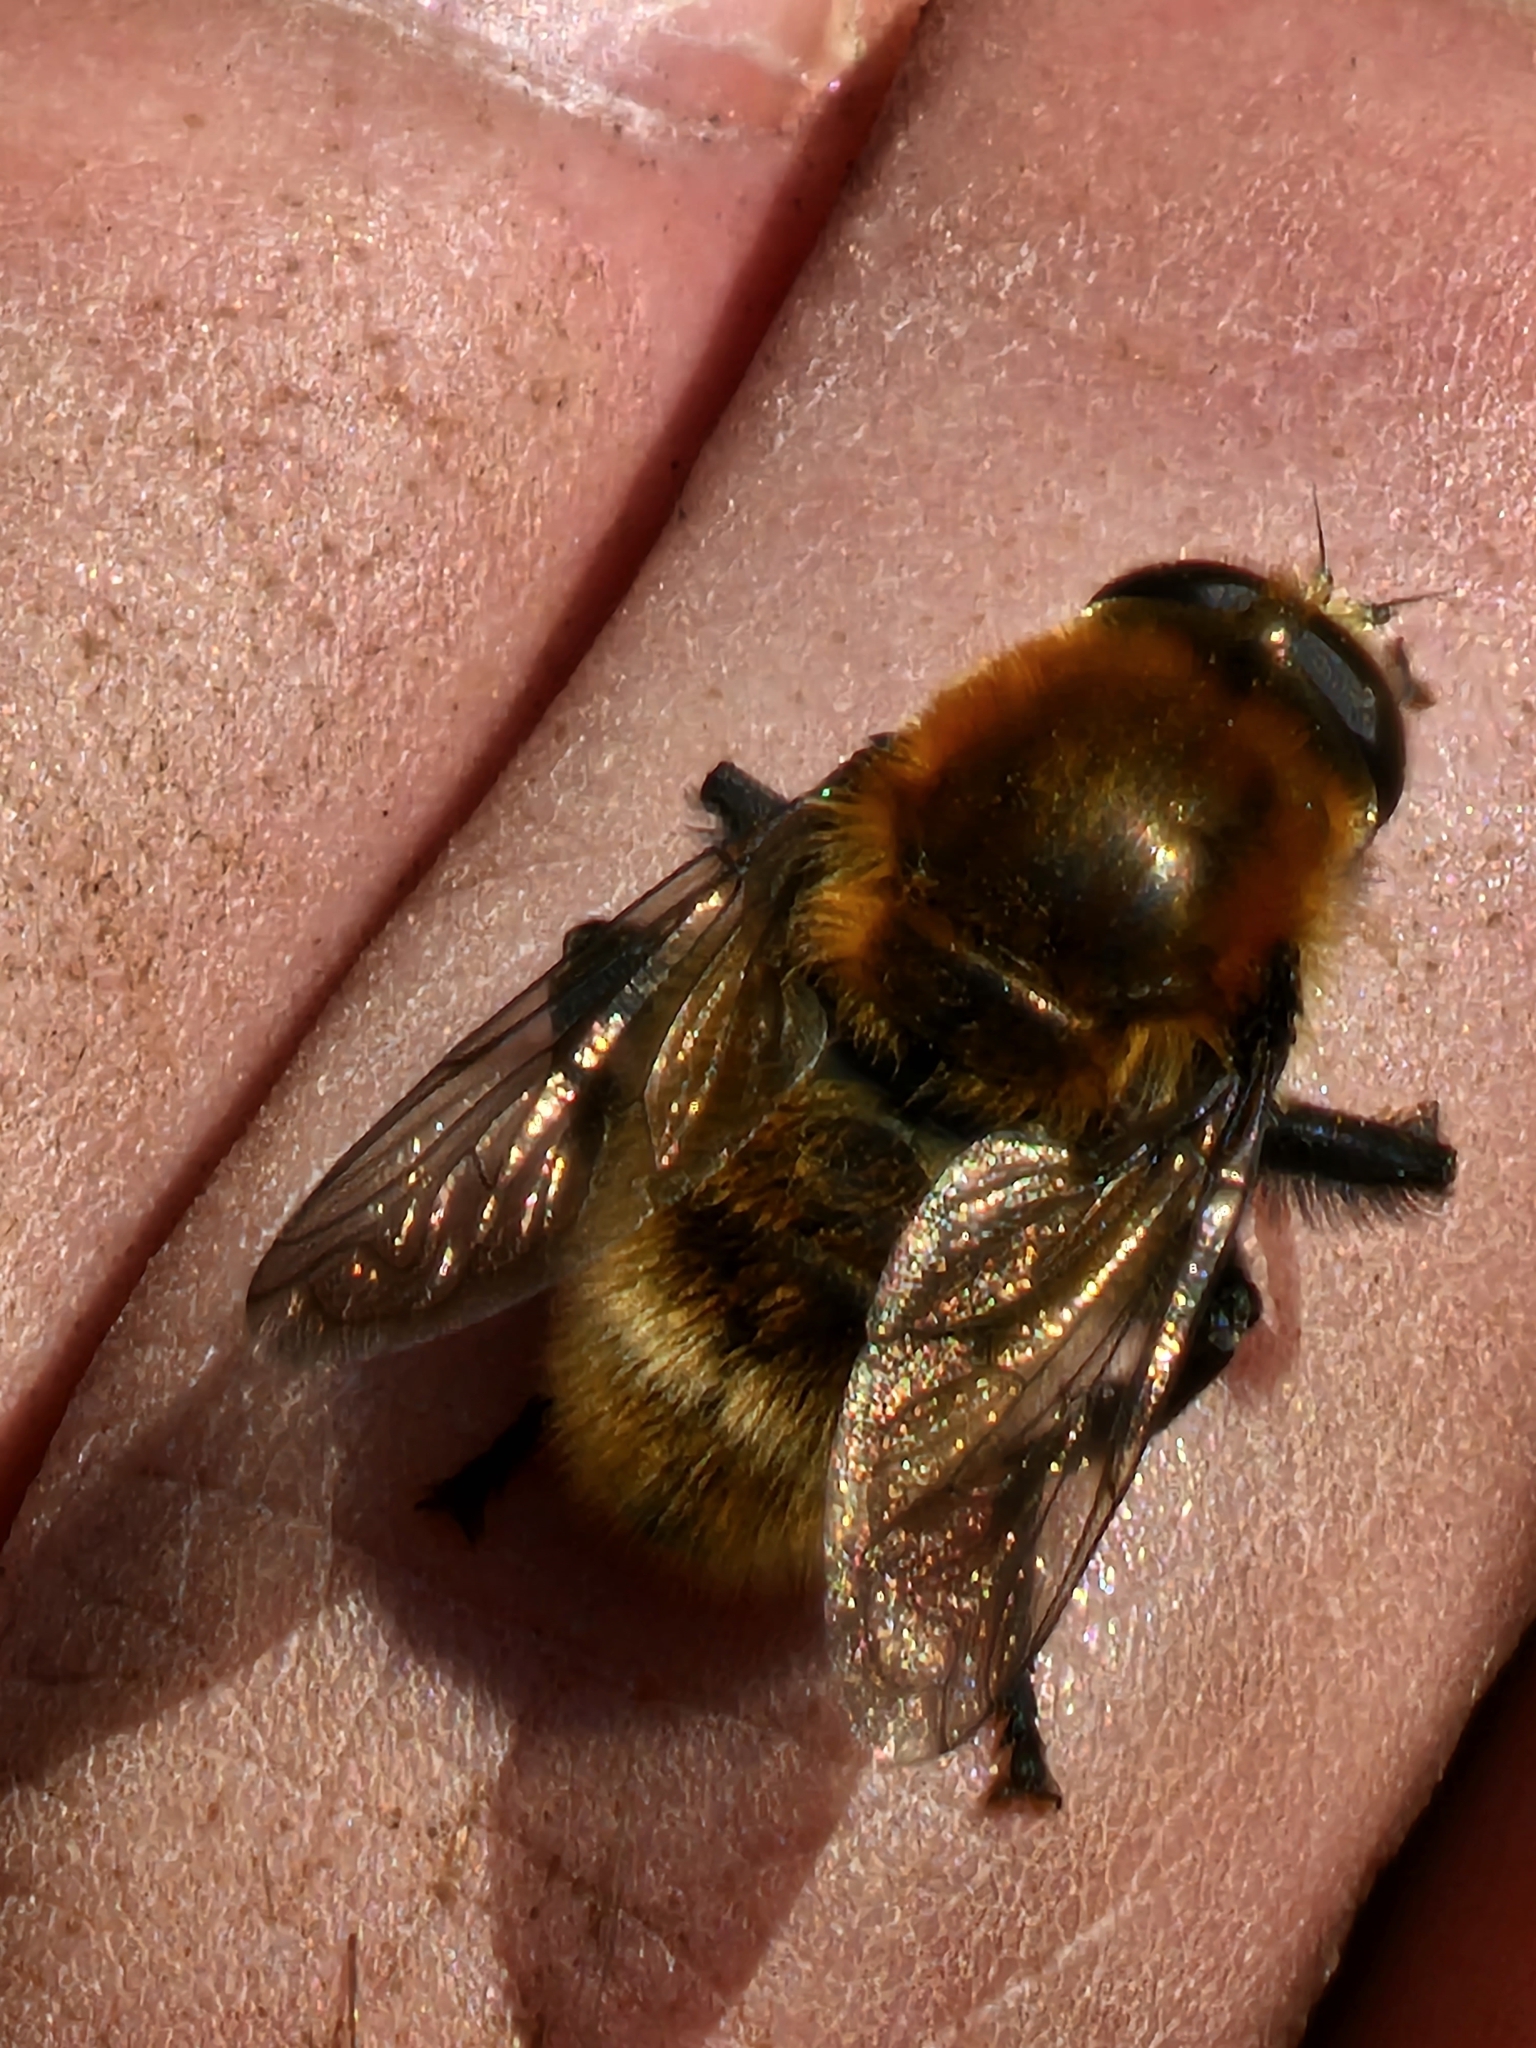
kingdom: Animalia
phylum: Arthropoda
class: Insecta
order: Diptera
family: Syrphidae
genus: Merodon
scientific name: Merodon equestris
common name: Greater bulb-fly
